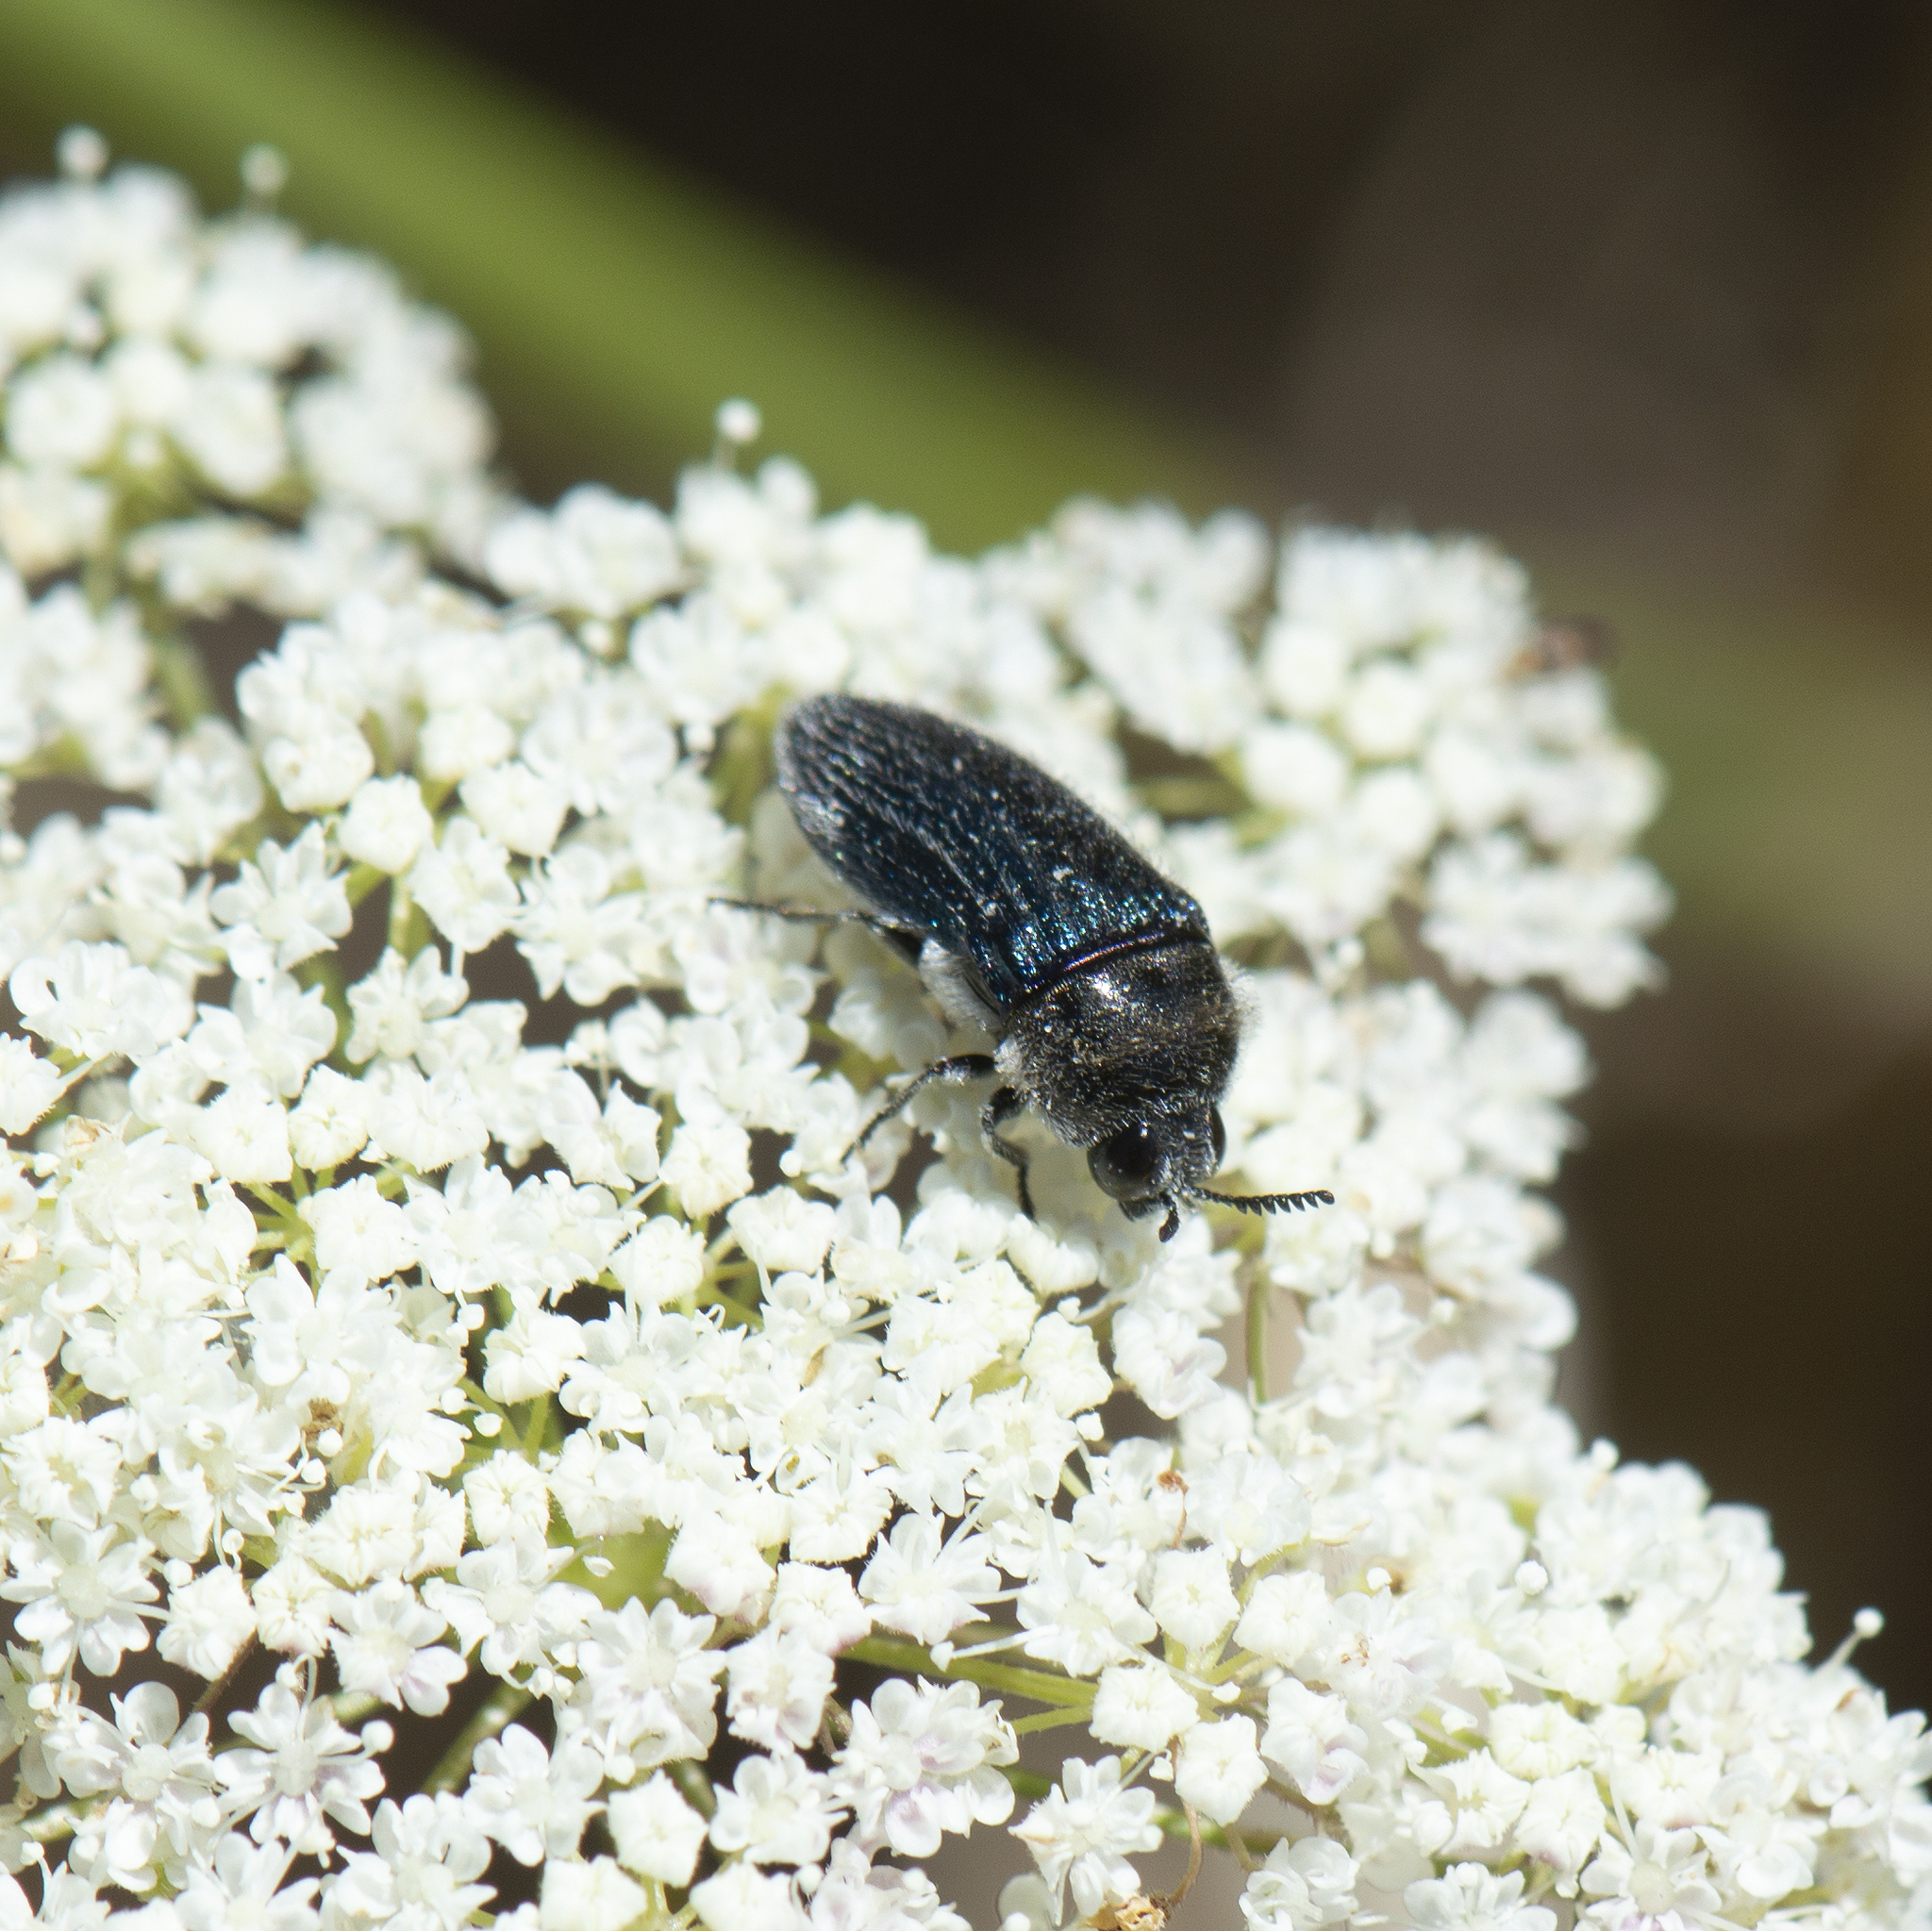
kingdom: Animalia
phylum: Arthropoda
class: Insecta
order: Coleoptera
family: Buprestidae
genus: Acmaeoderella
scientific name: Acmaeoderella villosula
